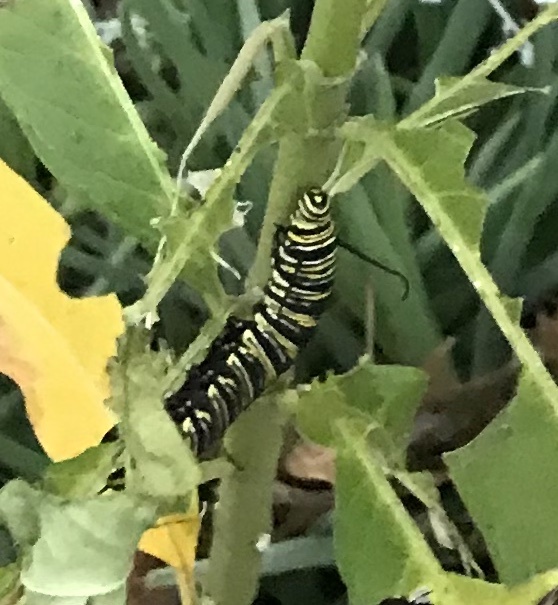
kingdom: Animalia
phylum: Arthropoda
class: Insecta
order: Lepidoptera
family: Nymphalidae
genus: Danaus
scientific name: Danaus plexippus
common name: Monarch
